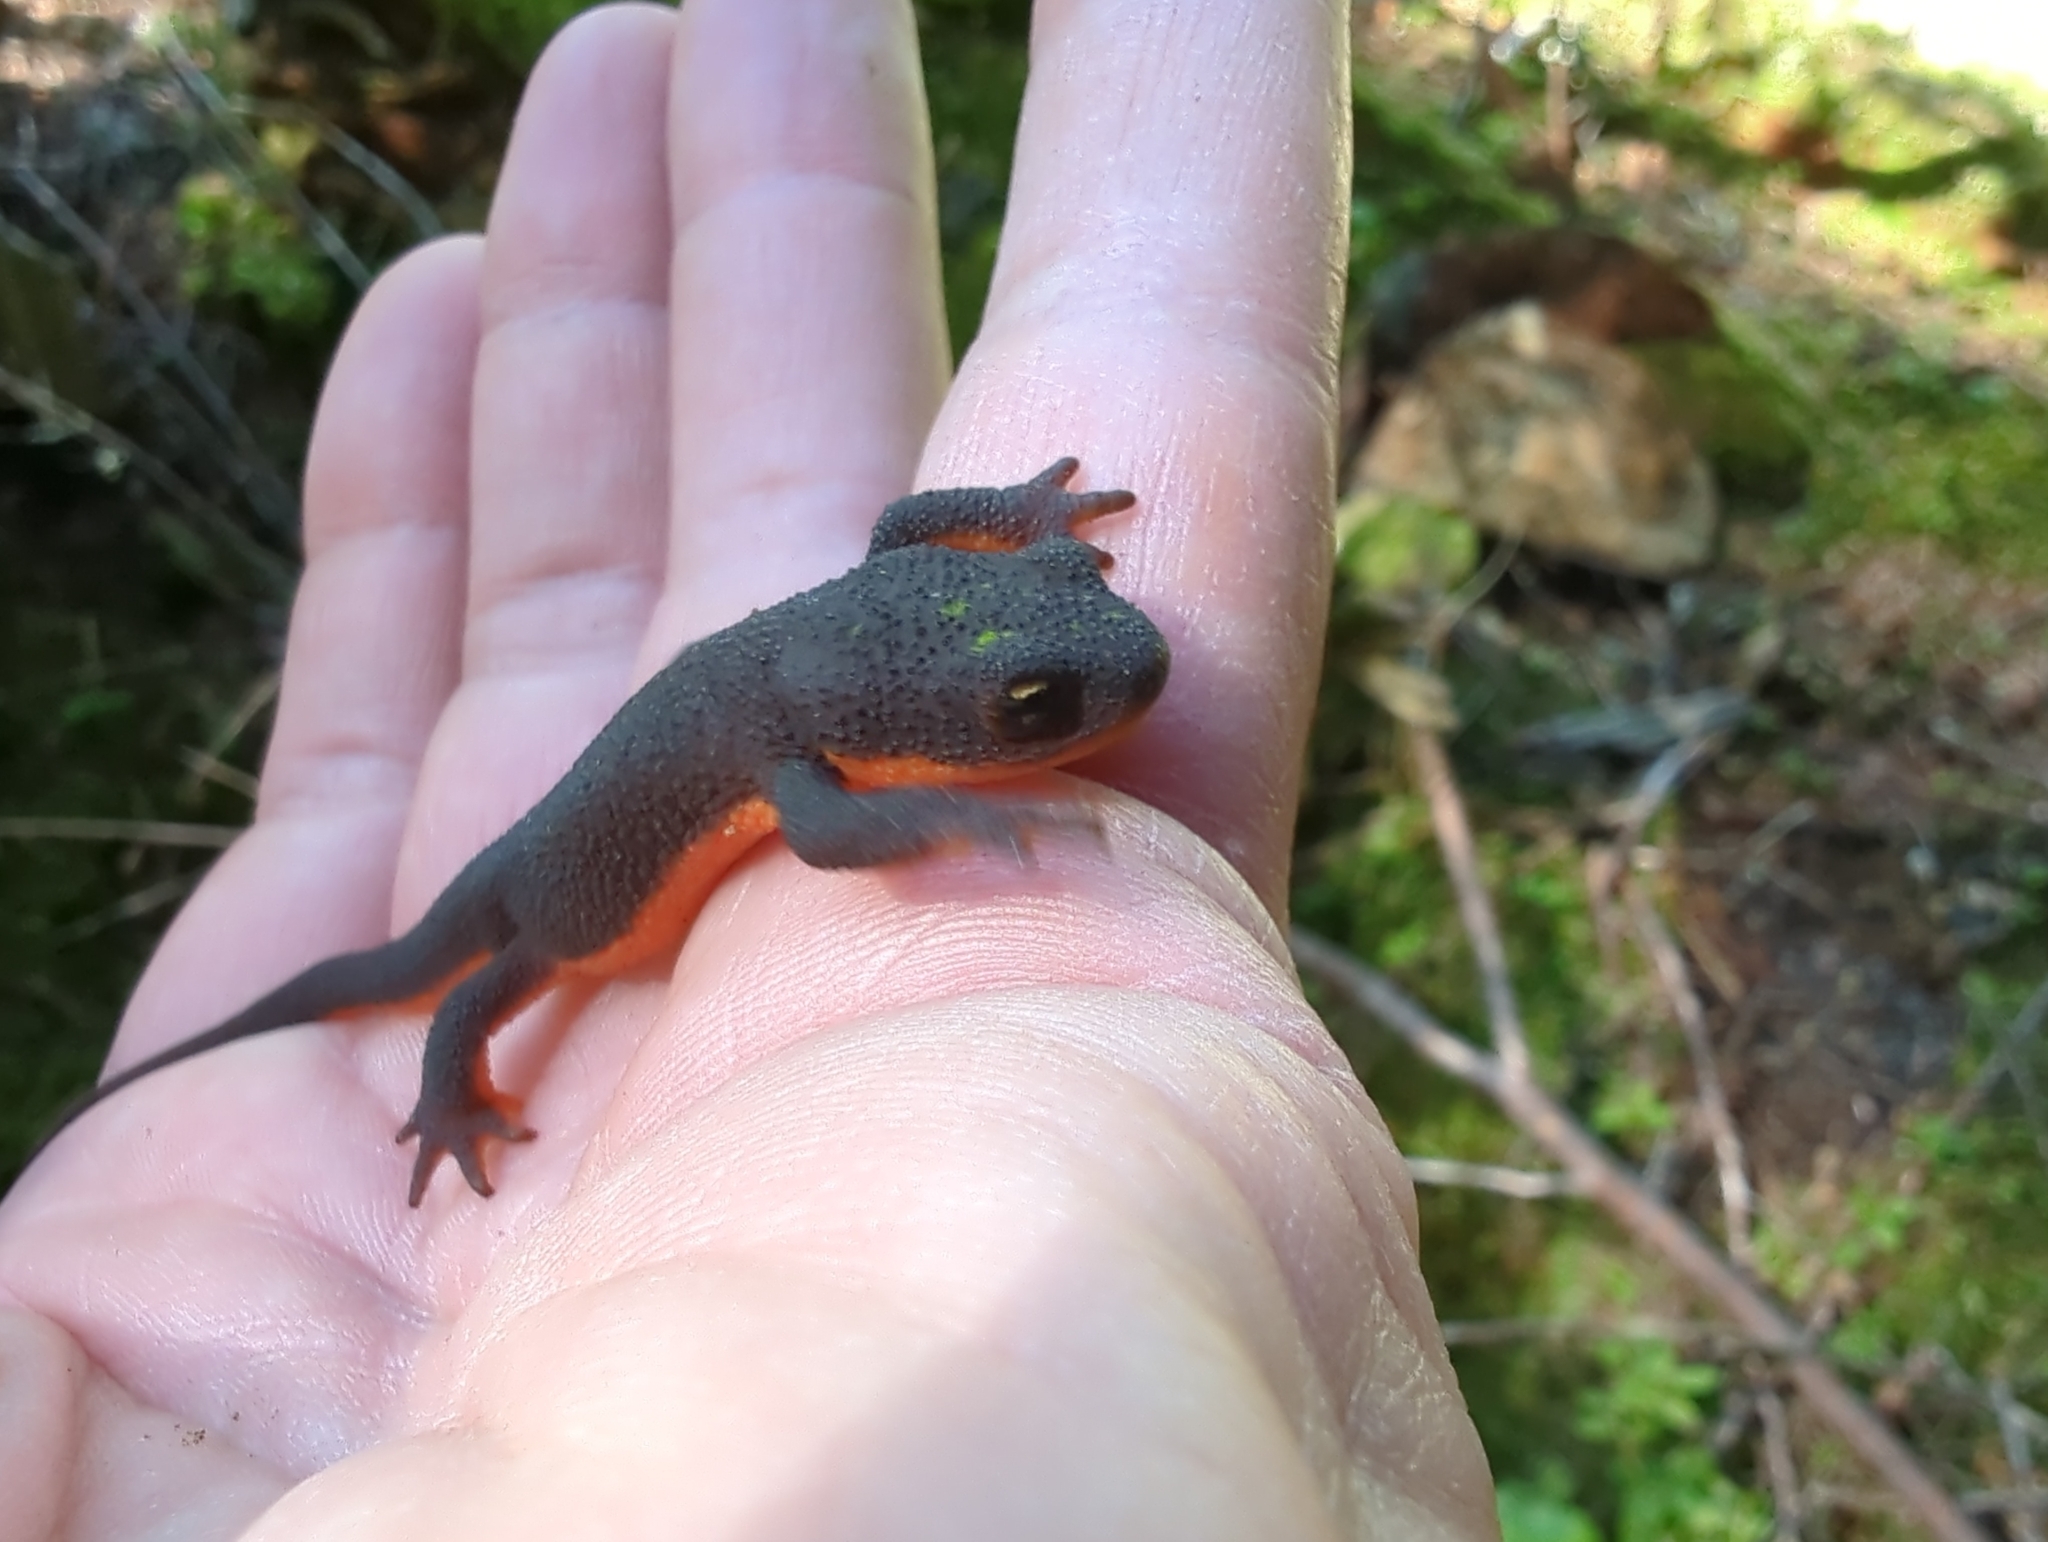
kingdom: Animalia
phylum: Chordata
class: Amphibia
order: Caudata
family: Salamandridae
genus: Taricha
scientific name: Taricha granulosa
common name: Roughskin newt
